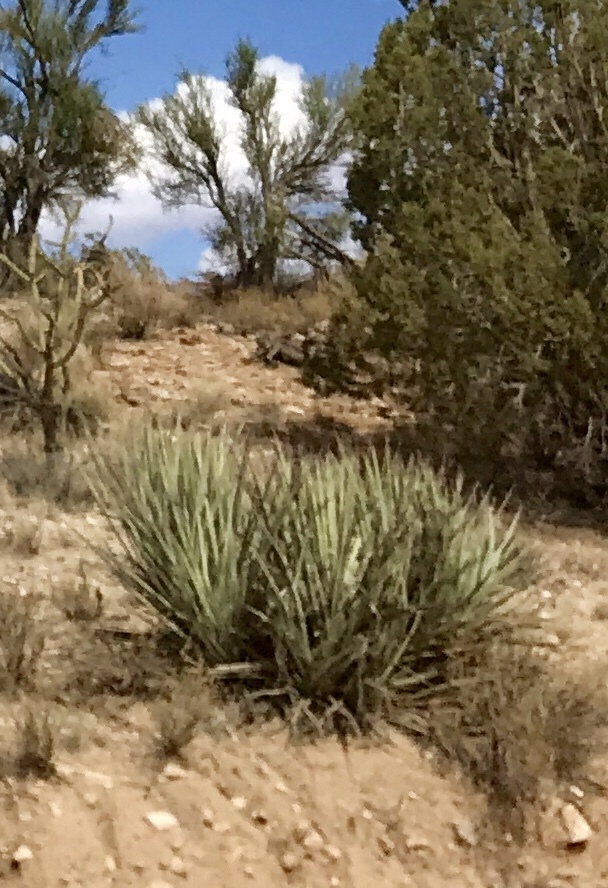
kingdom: Plantae
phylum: Tracheophyta
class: Liliopsida
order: Asparagales
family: Asparagaceae
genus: Yucca
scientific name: Yucca baccata
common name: Banana yucca
